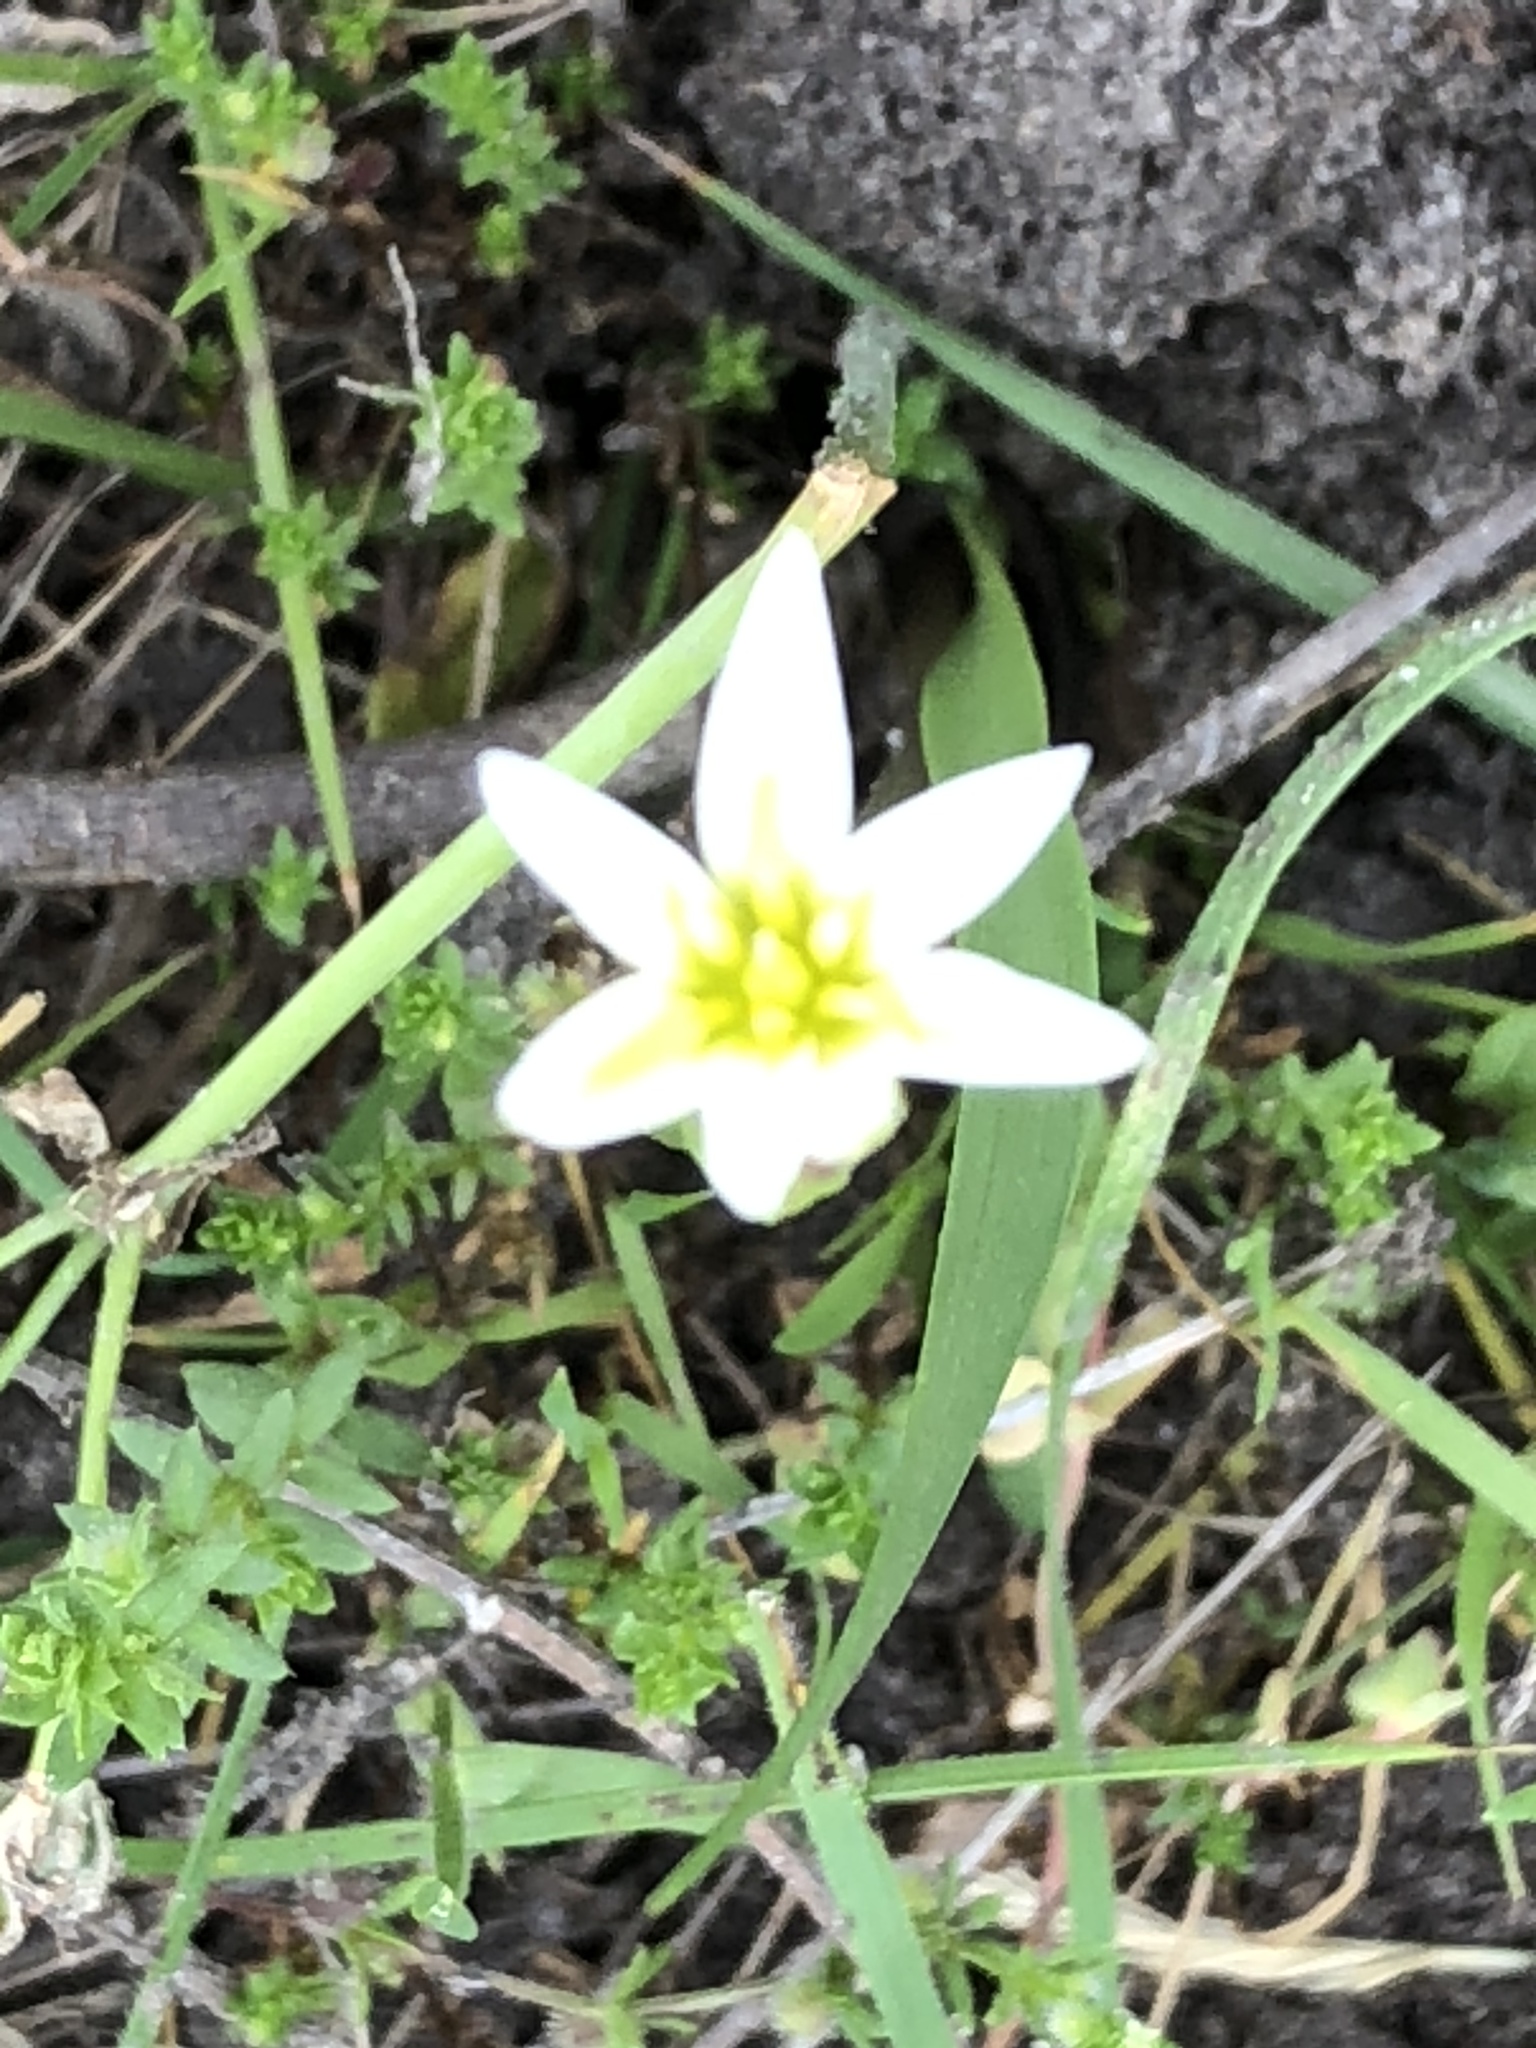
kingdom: Plantae
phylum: Tracheophyta
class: Liliopsida
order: Asparagales
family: Amaryllidaceae
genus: Nothoscordum
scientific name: Nothoscordum bivalve
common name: Crow-poison
